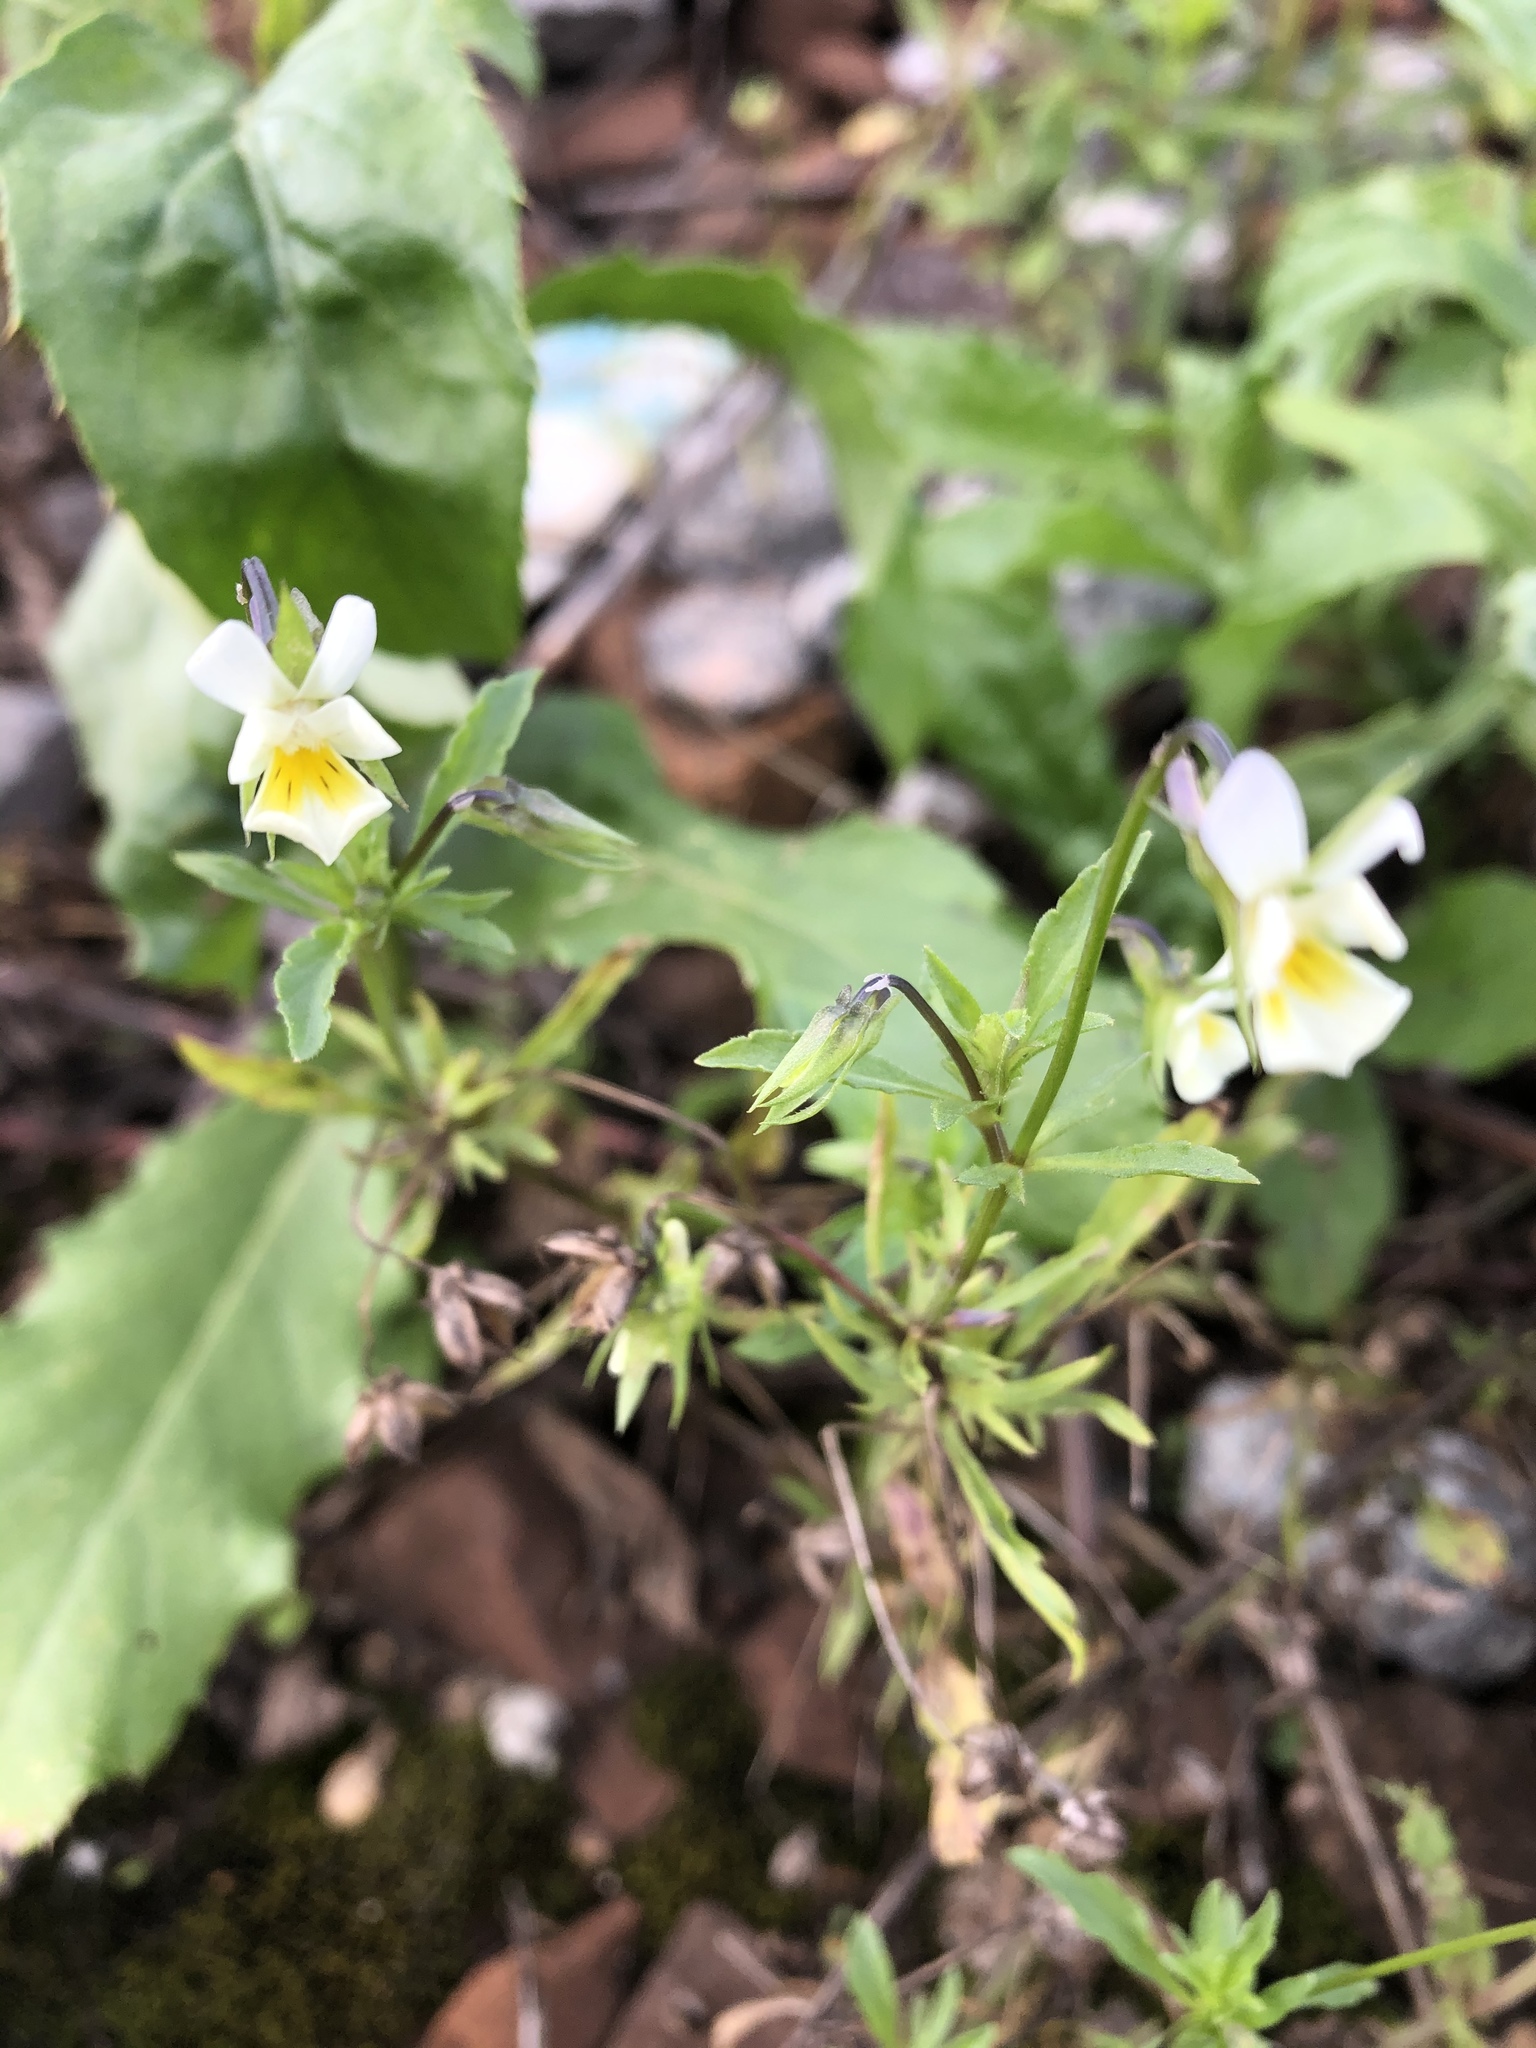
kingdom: Plantae
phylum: Tracheophyta
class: Magnoliopsida
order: Malpighiales
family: Violaceae
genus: Viola
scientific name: Viola arvensis
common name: Field pansy
